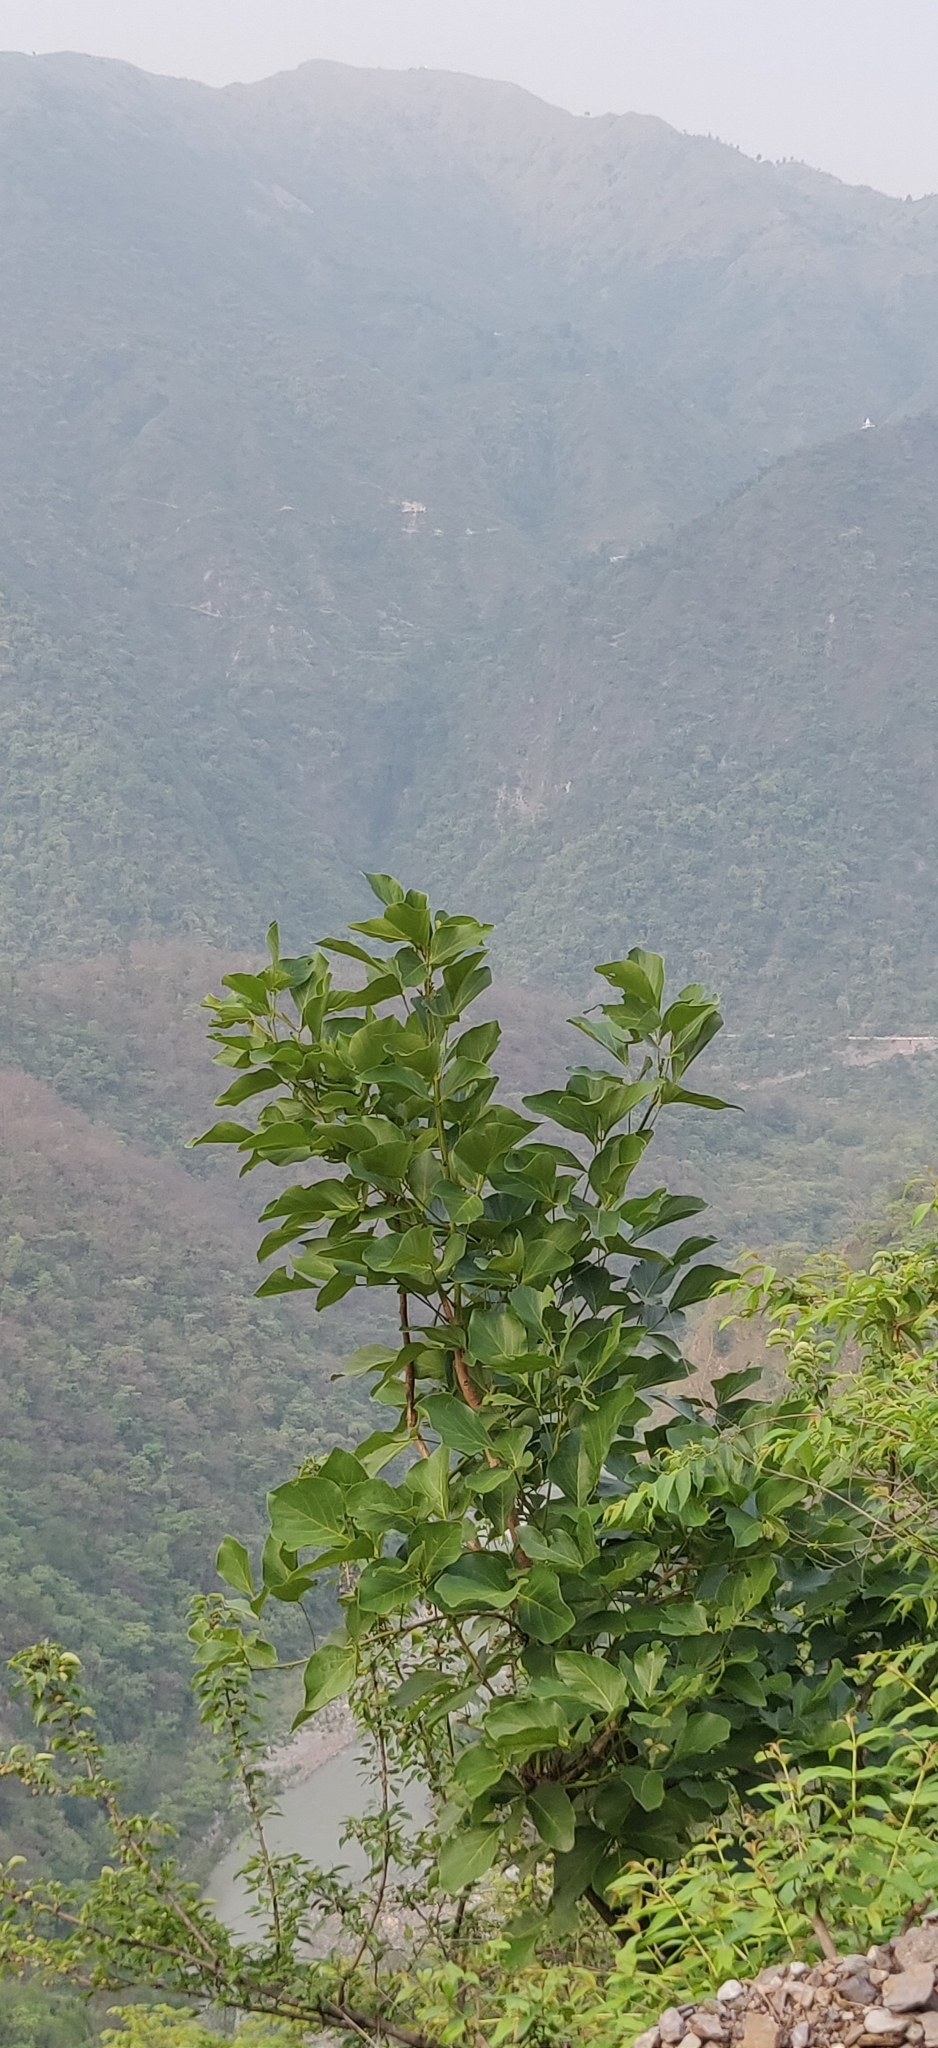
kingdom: Plantae
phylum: Tracheophyta
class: Magnoliopsida
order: Fabales
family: Fabaceae
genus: Butea
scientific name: Butea monosperma
